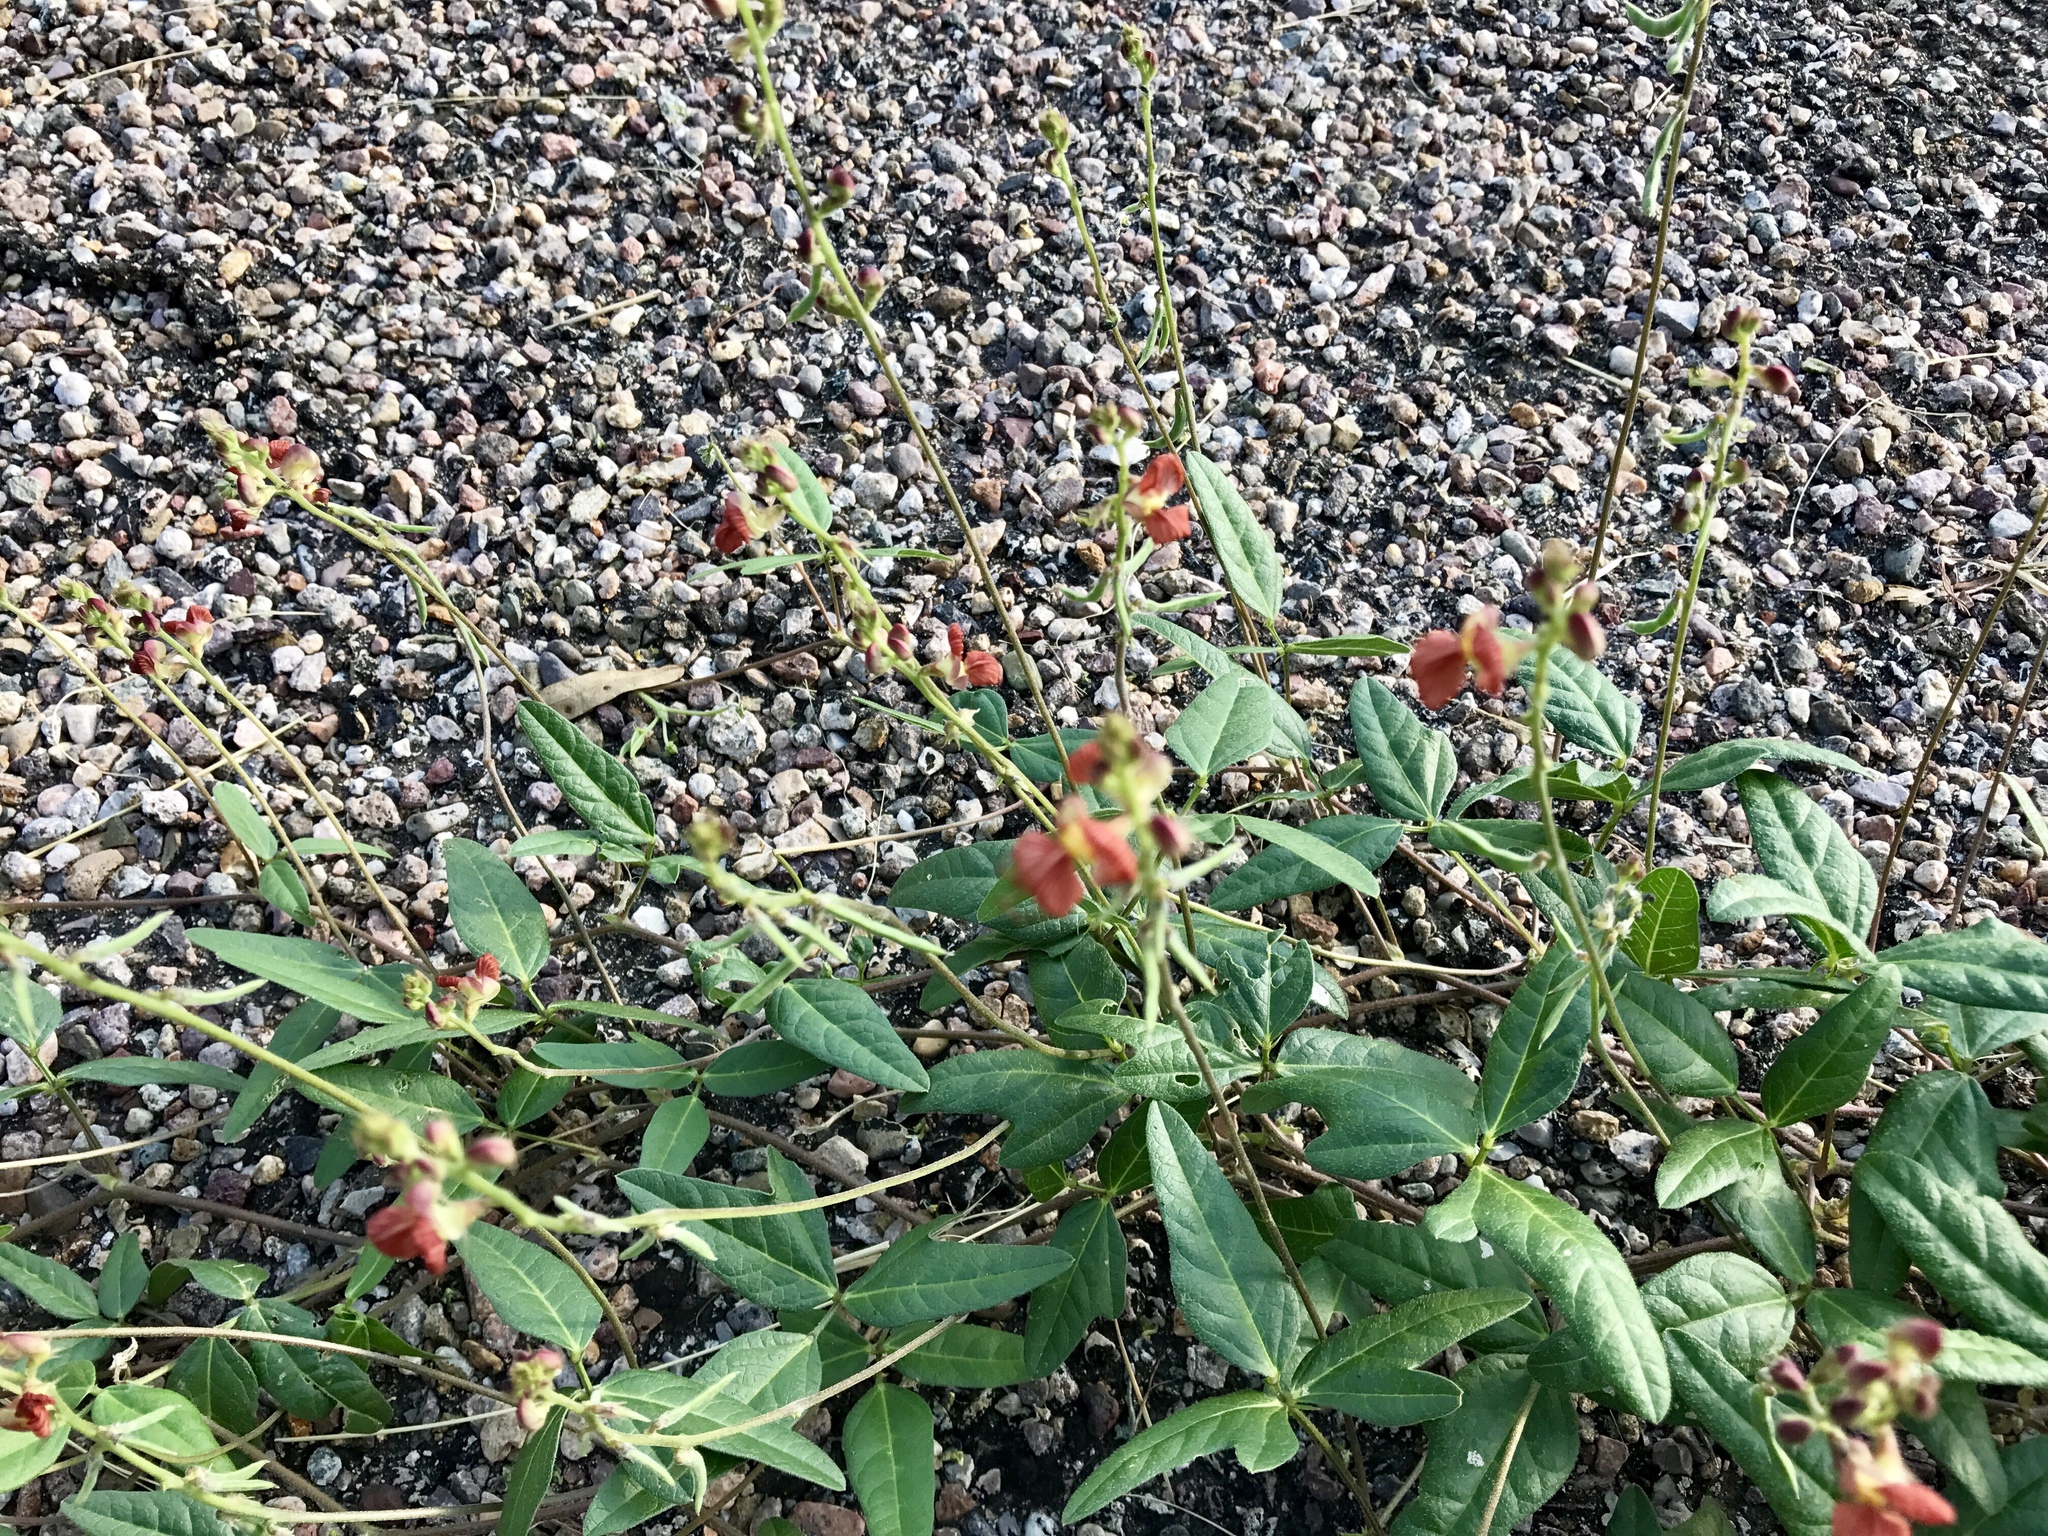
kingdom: Plantae
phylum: Tracheophyta
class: Magnoliopsida
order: Fabales
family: Fabaceae
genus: Macroptilium
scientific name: Macroptilium gibbosifolium
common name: Variableleaf bushbean
